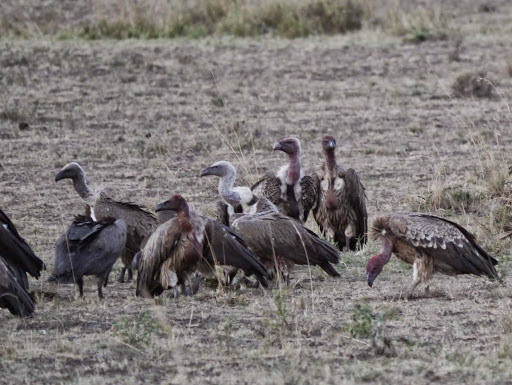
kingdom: Animalia
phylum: Chordata
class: Aves
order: Accipitriformes
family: Accipitridae
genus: Gyps
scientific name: Gyps africanus
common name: White-backed vulture
